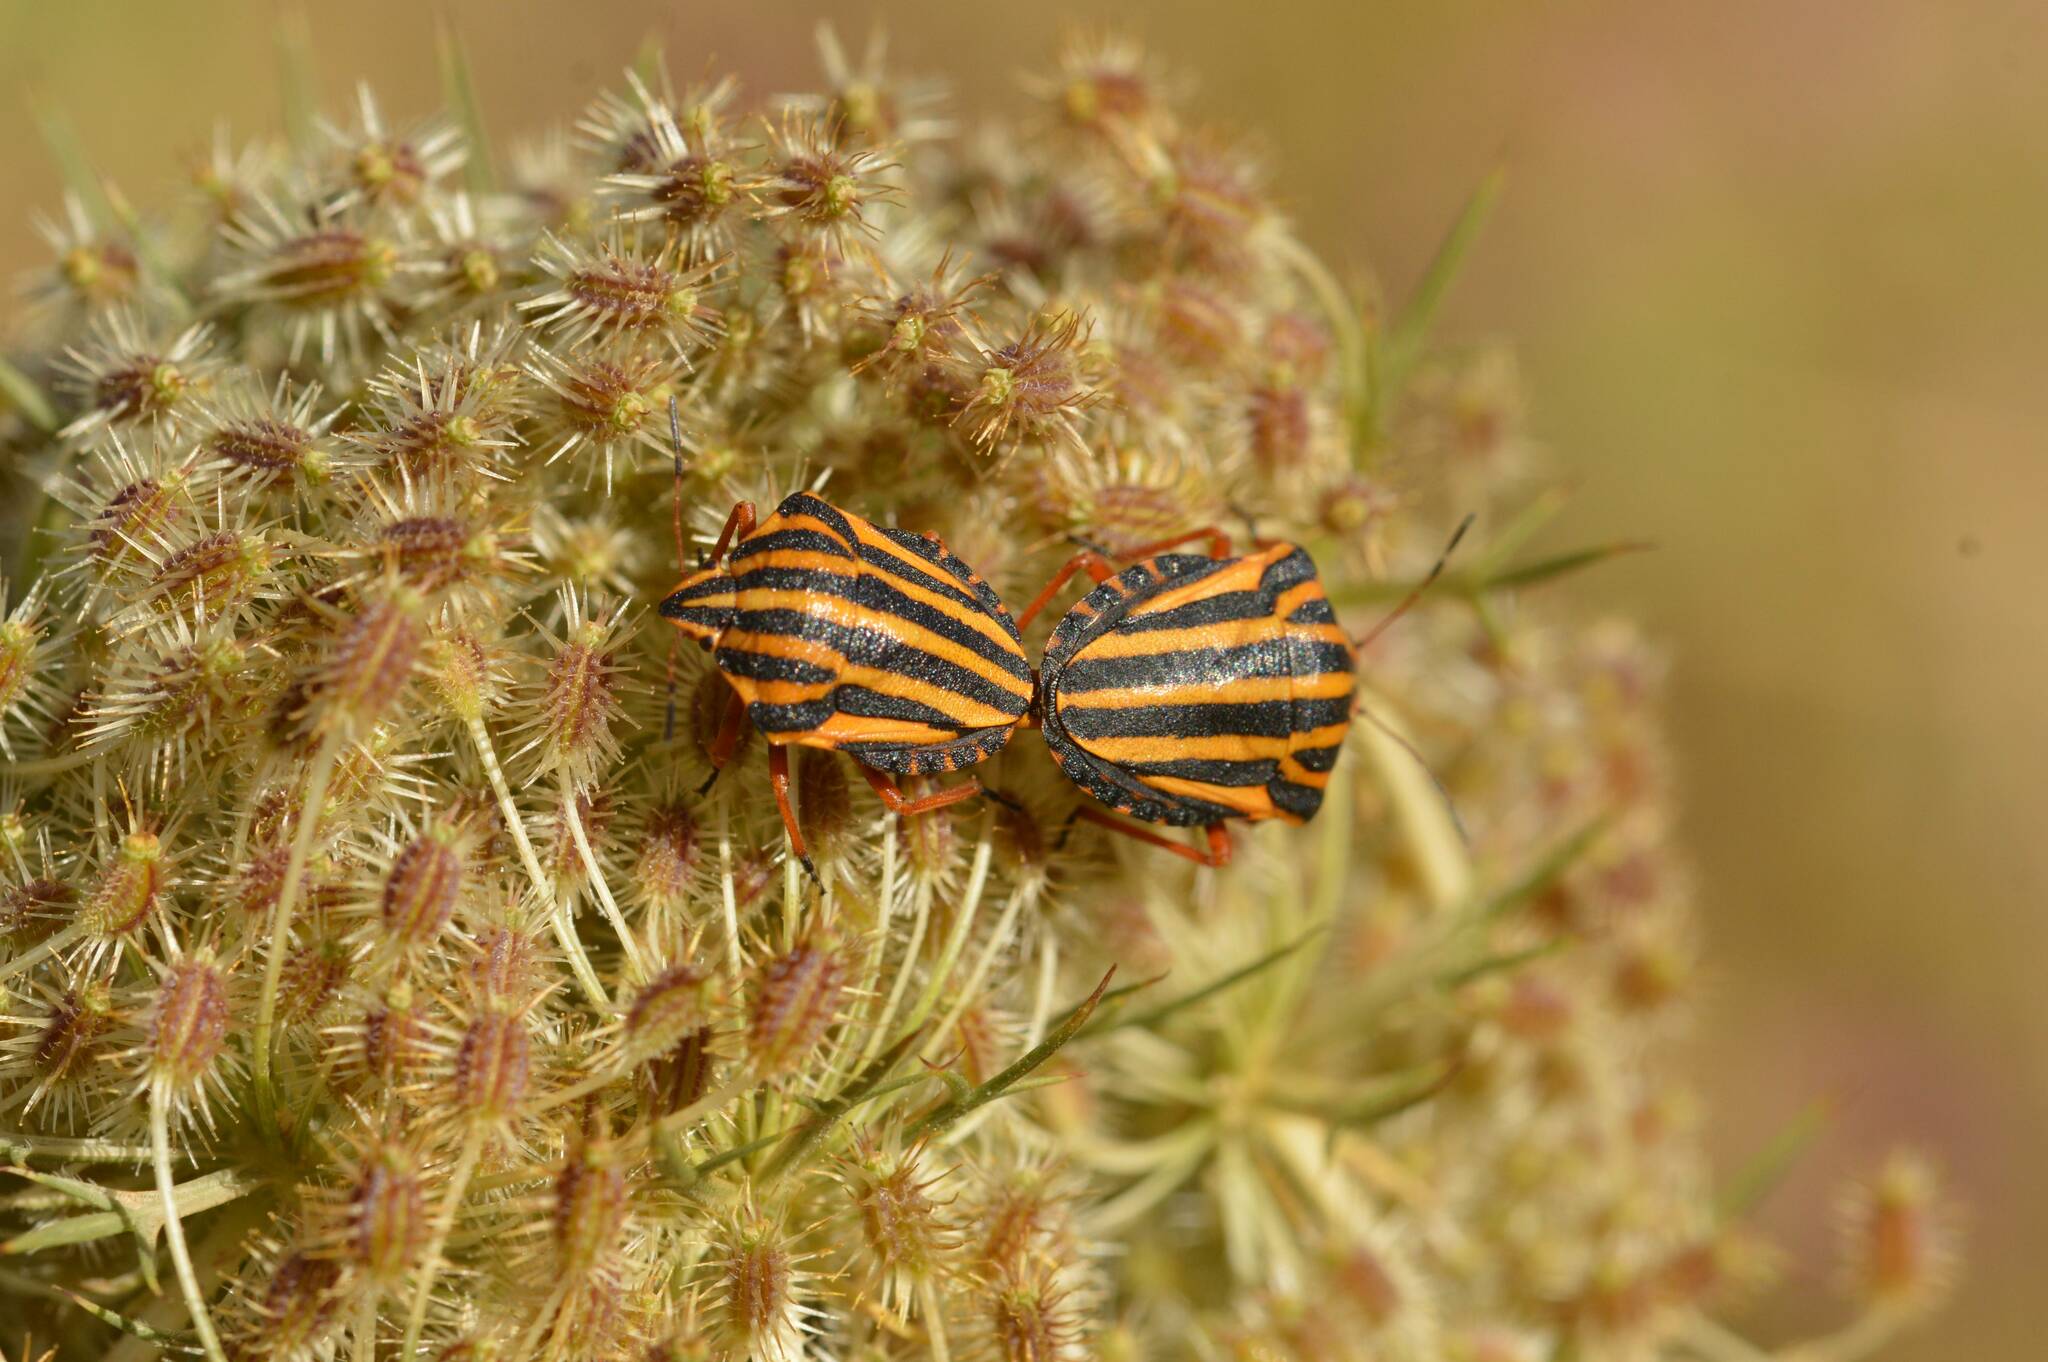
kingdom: Animalia
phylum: Arthropoda
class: Insecta
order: Hemiptera
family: Pentatomidae
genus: Graphosoma
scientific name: Graphosoma lineatum
